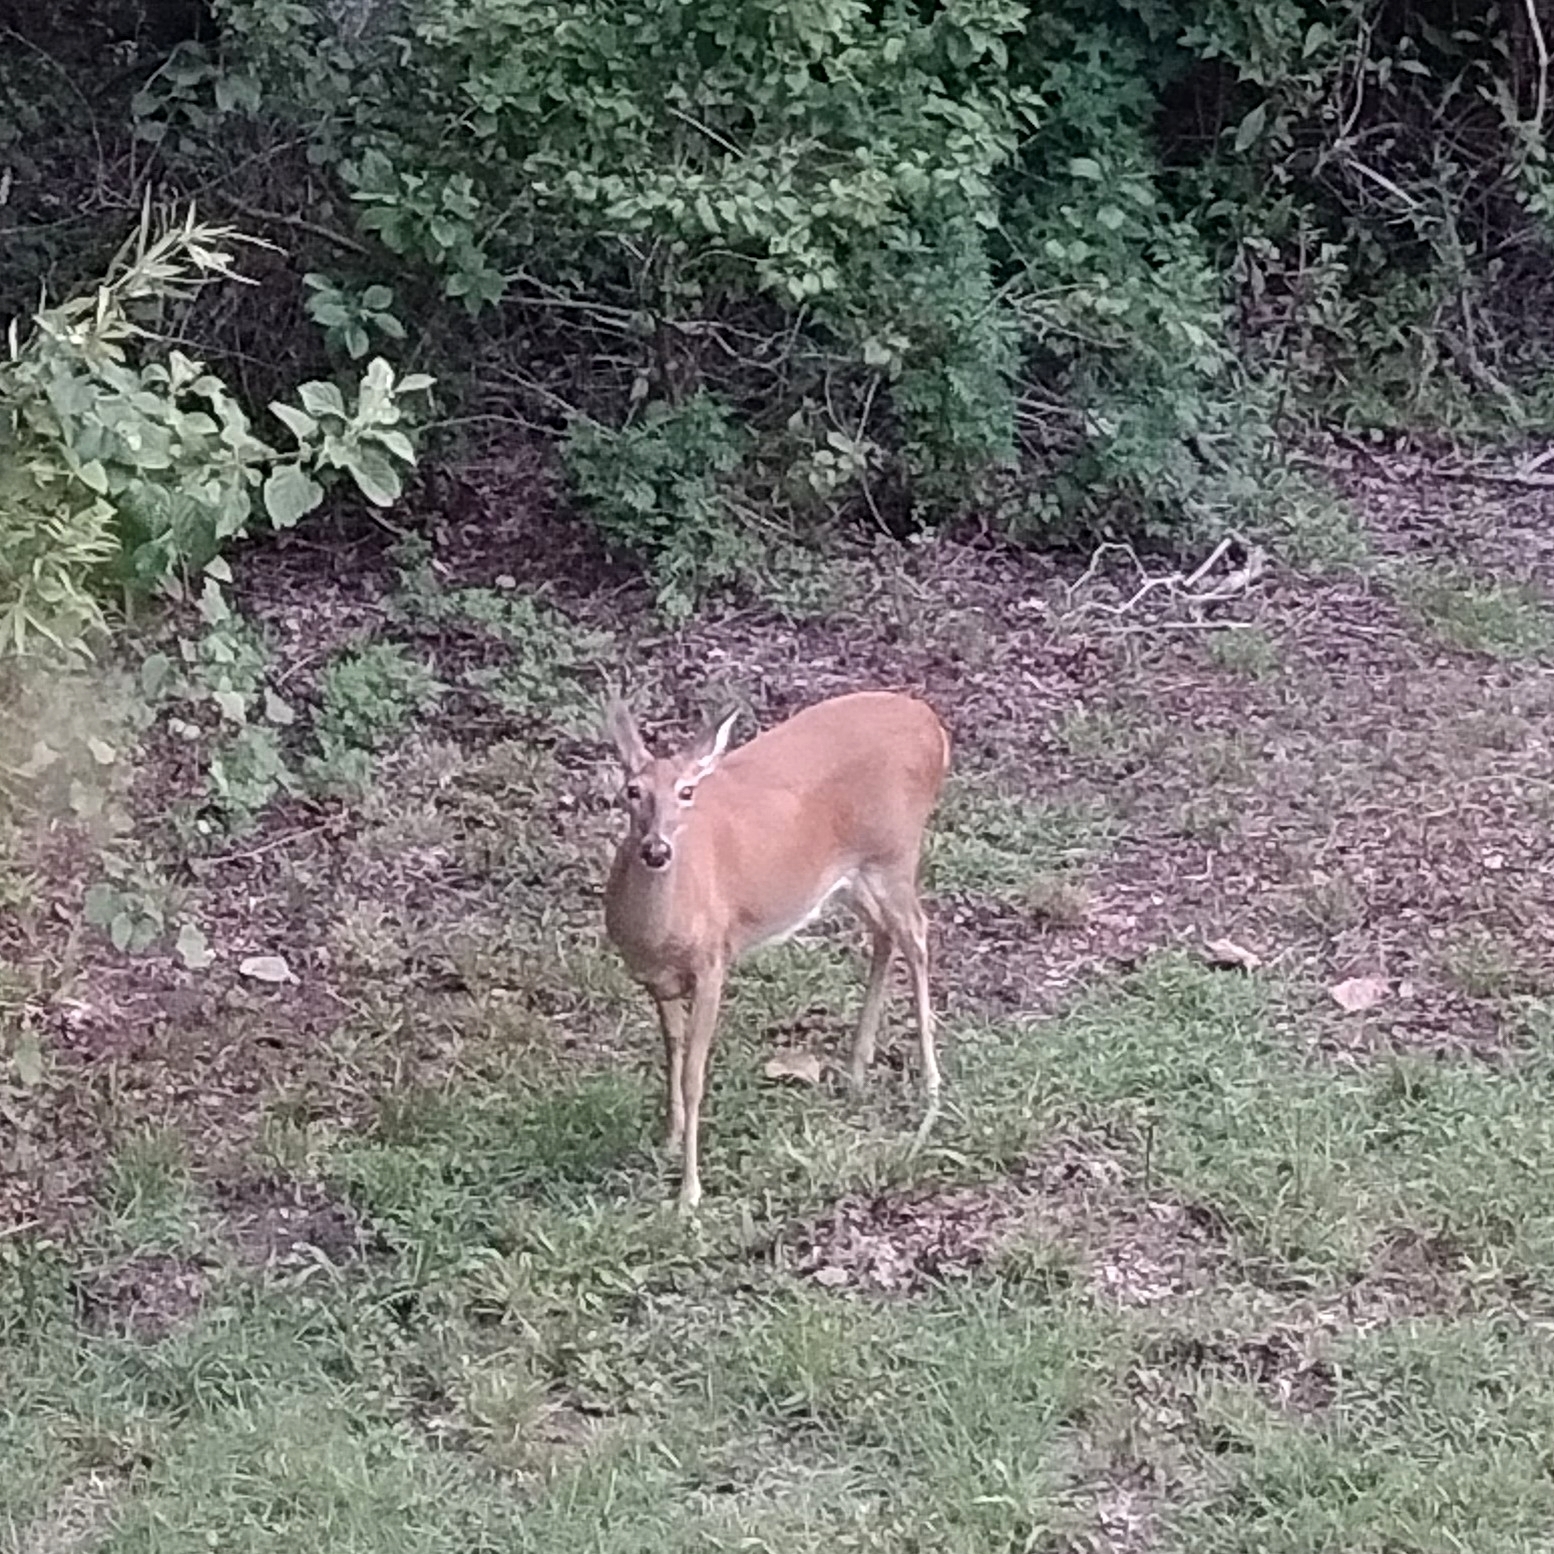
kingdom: Animalia
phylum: Chordata
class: Mammalia
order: Artiodactyla
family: Cervidae
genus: Odocoileus
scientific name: Odocoileus virginianus
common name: White-tailed deer
